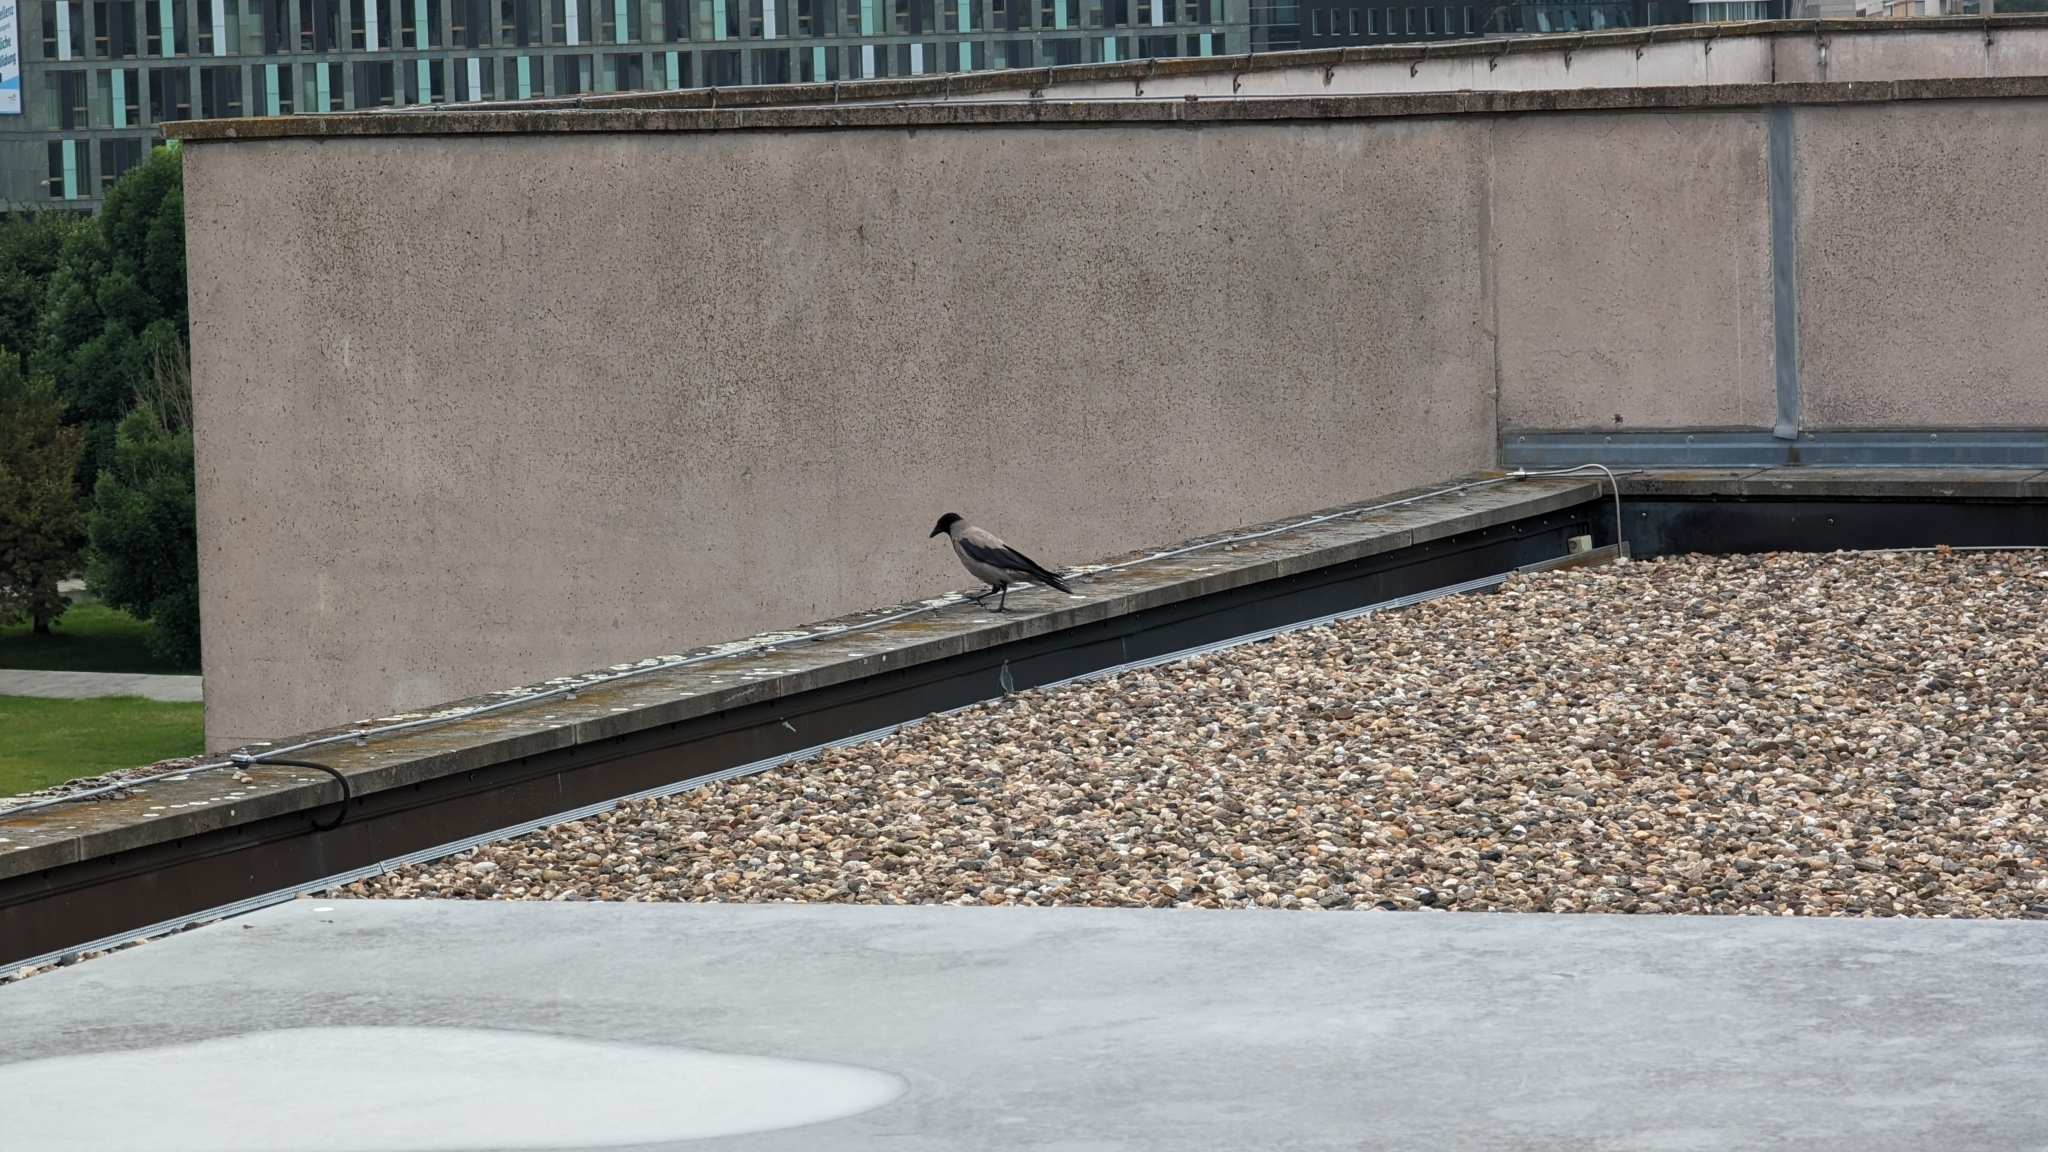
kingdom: Animalia
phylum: Chordata
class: Aves
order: Passeriformes
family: Corvidae
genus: Corvus
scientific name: Corvus cornix
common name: Hooded crow
